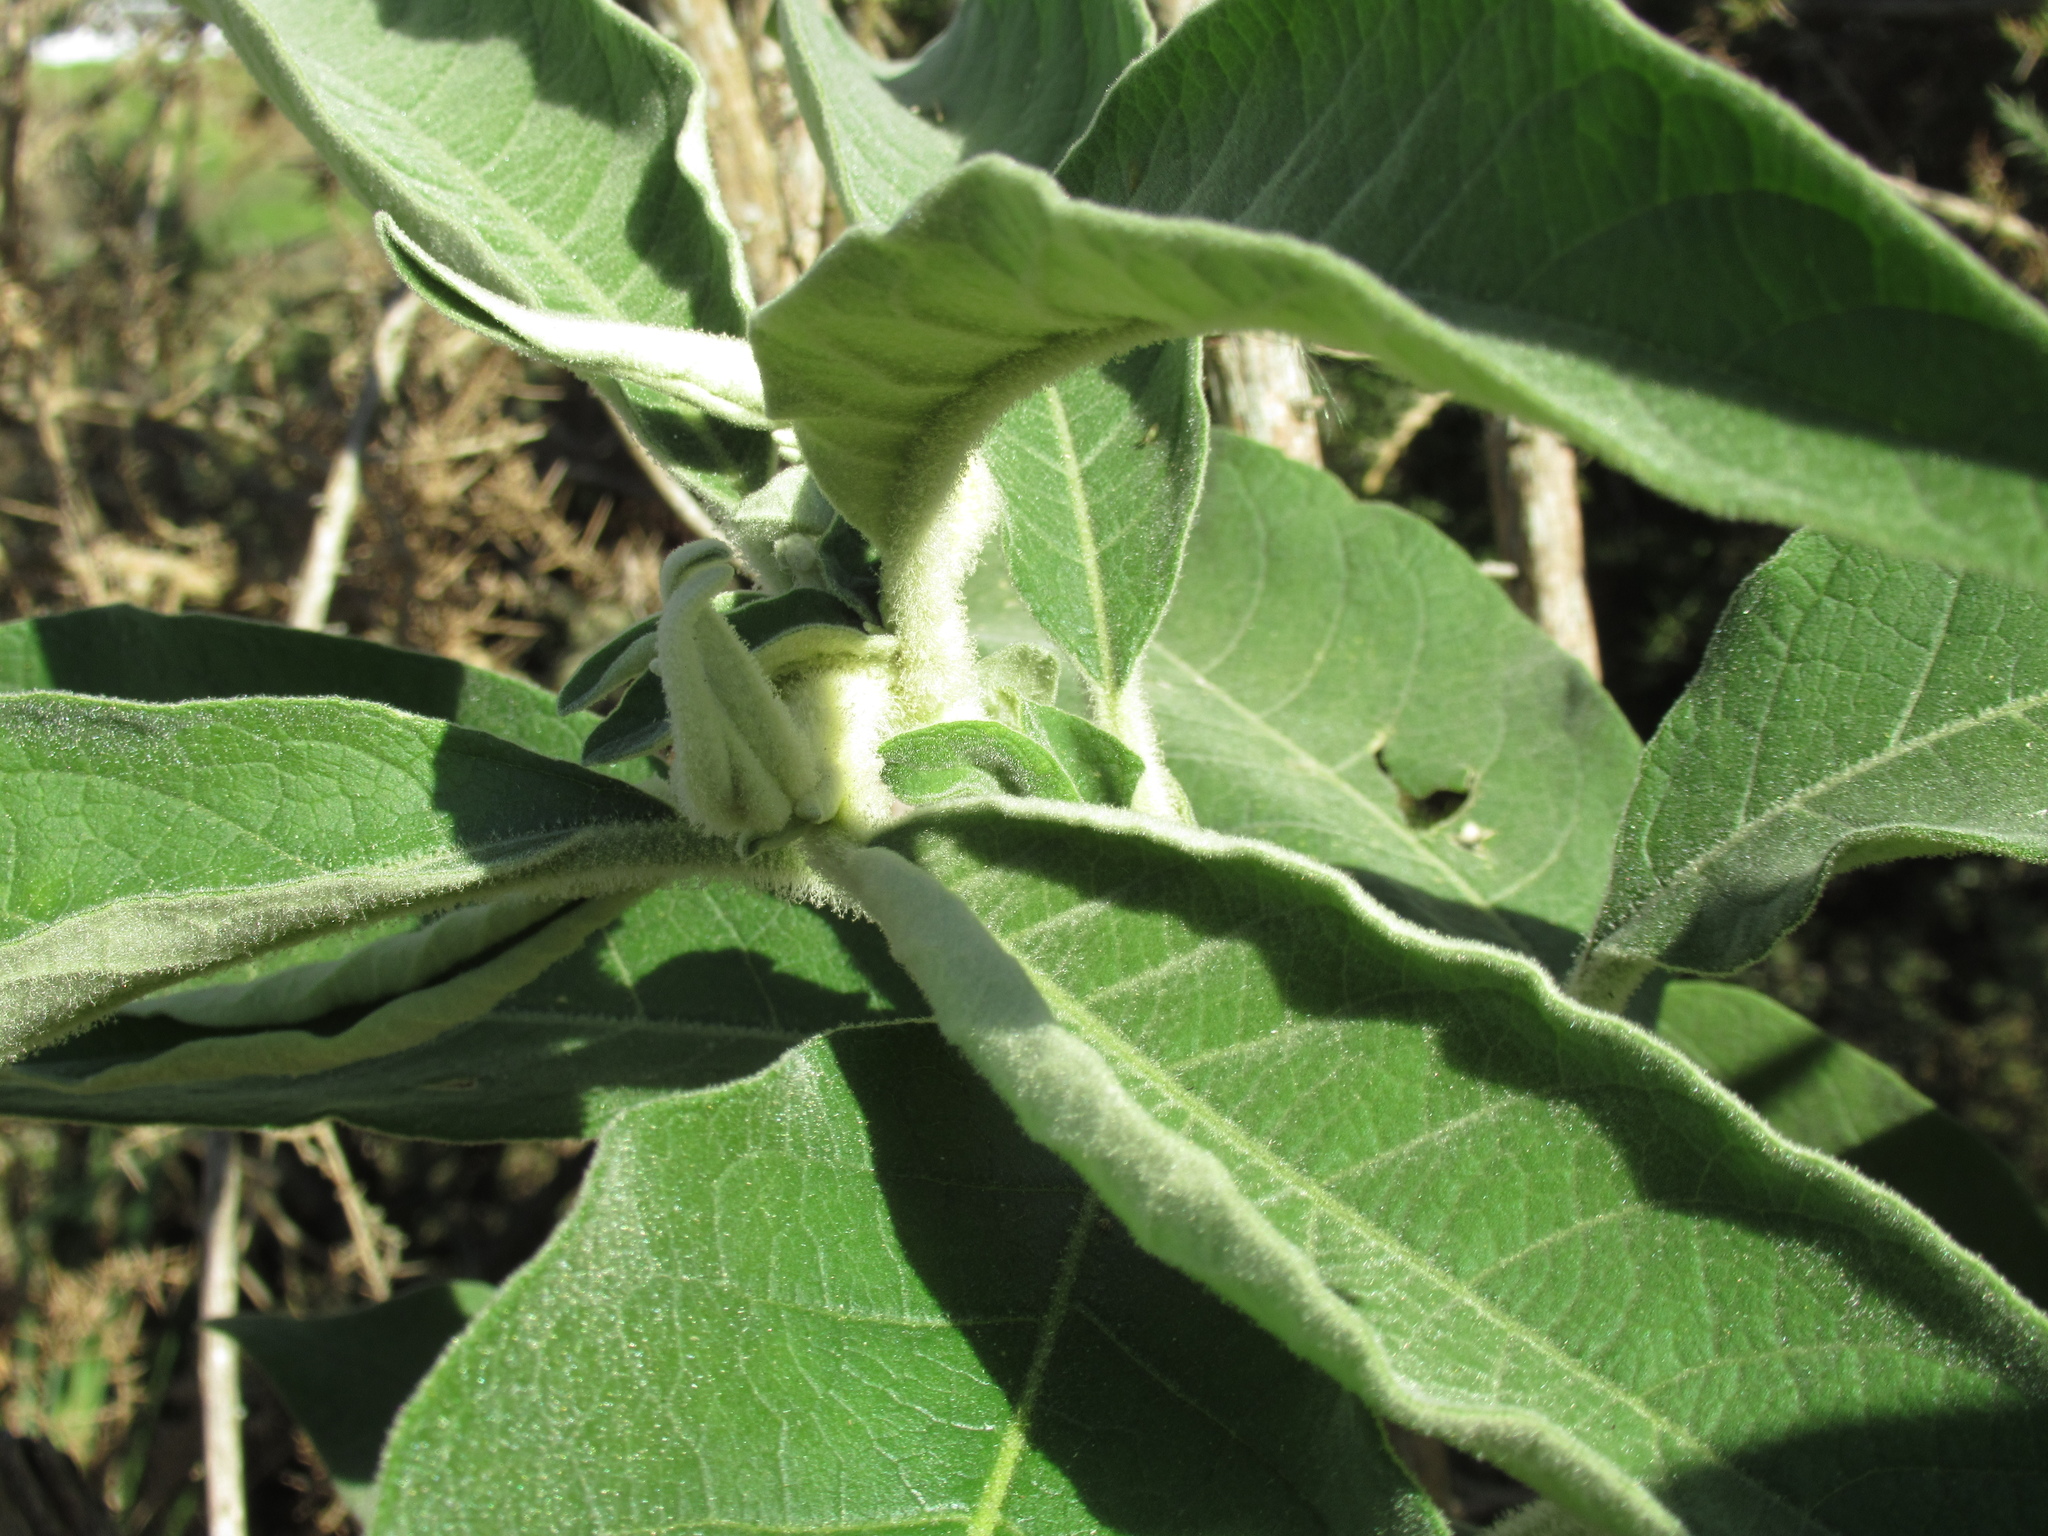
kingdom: Plantae
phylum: Tracheophyta
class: Magnoliopsida
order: Solanales
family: Solanaceae
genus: Solanum
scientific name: Solanum mauritianum
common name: Earleaf nightshade
